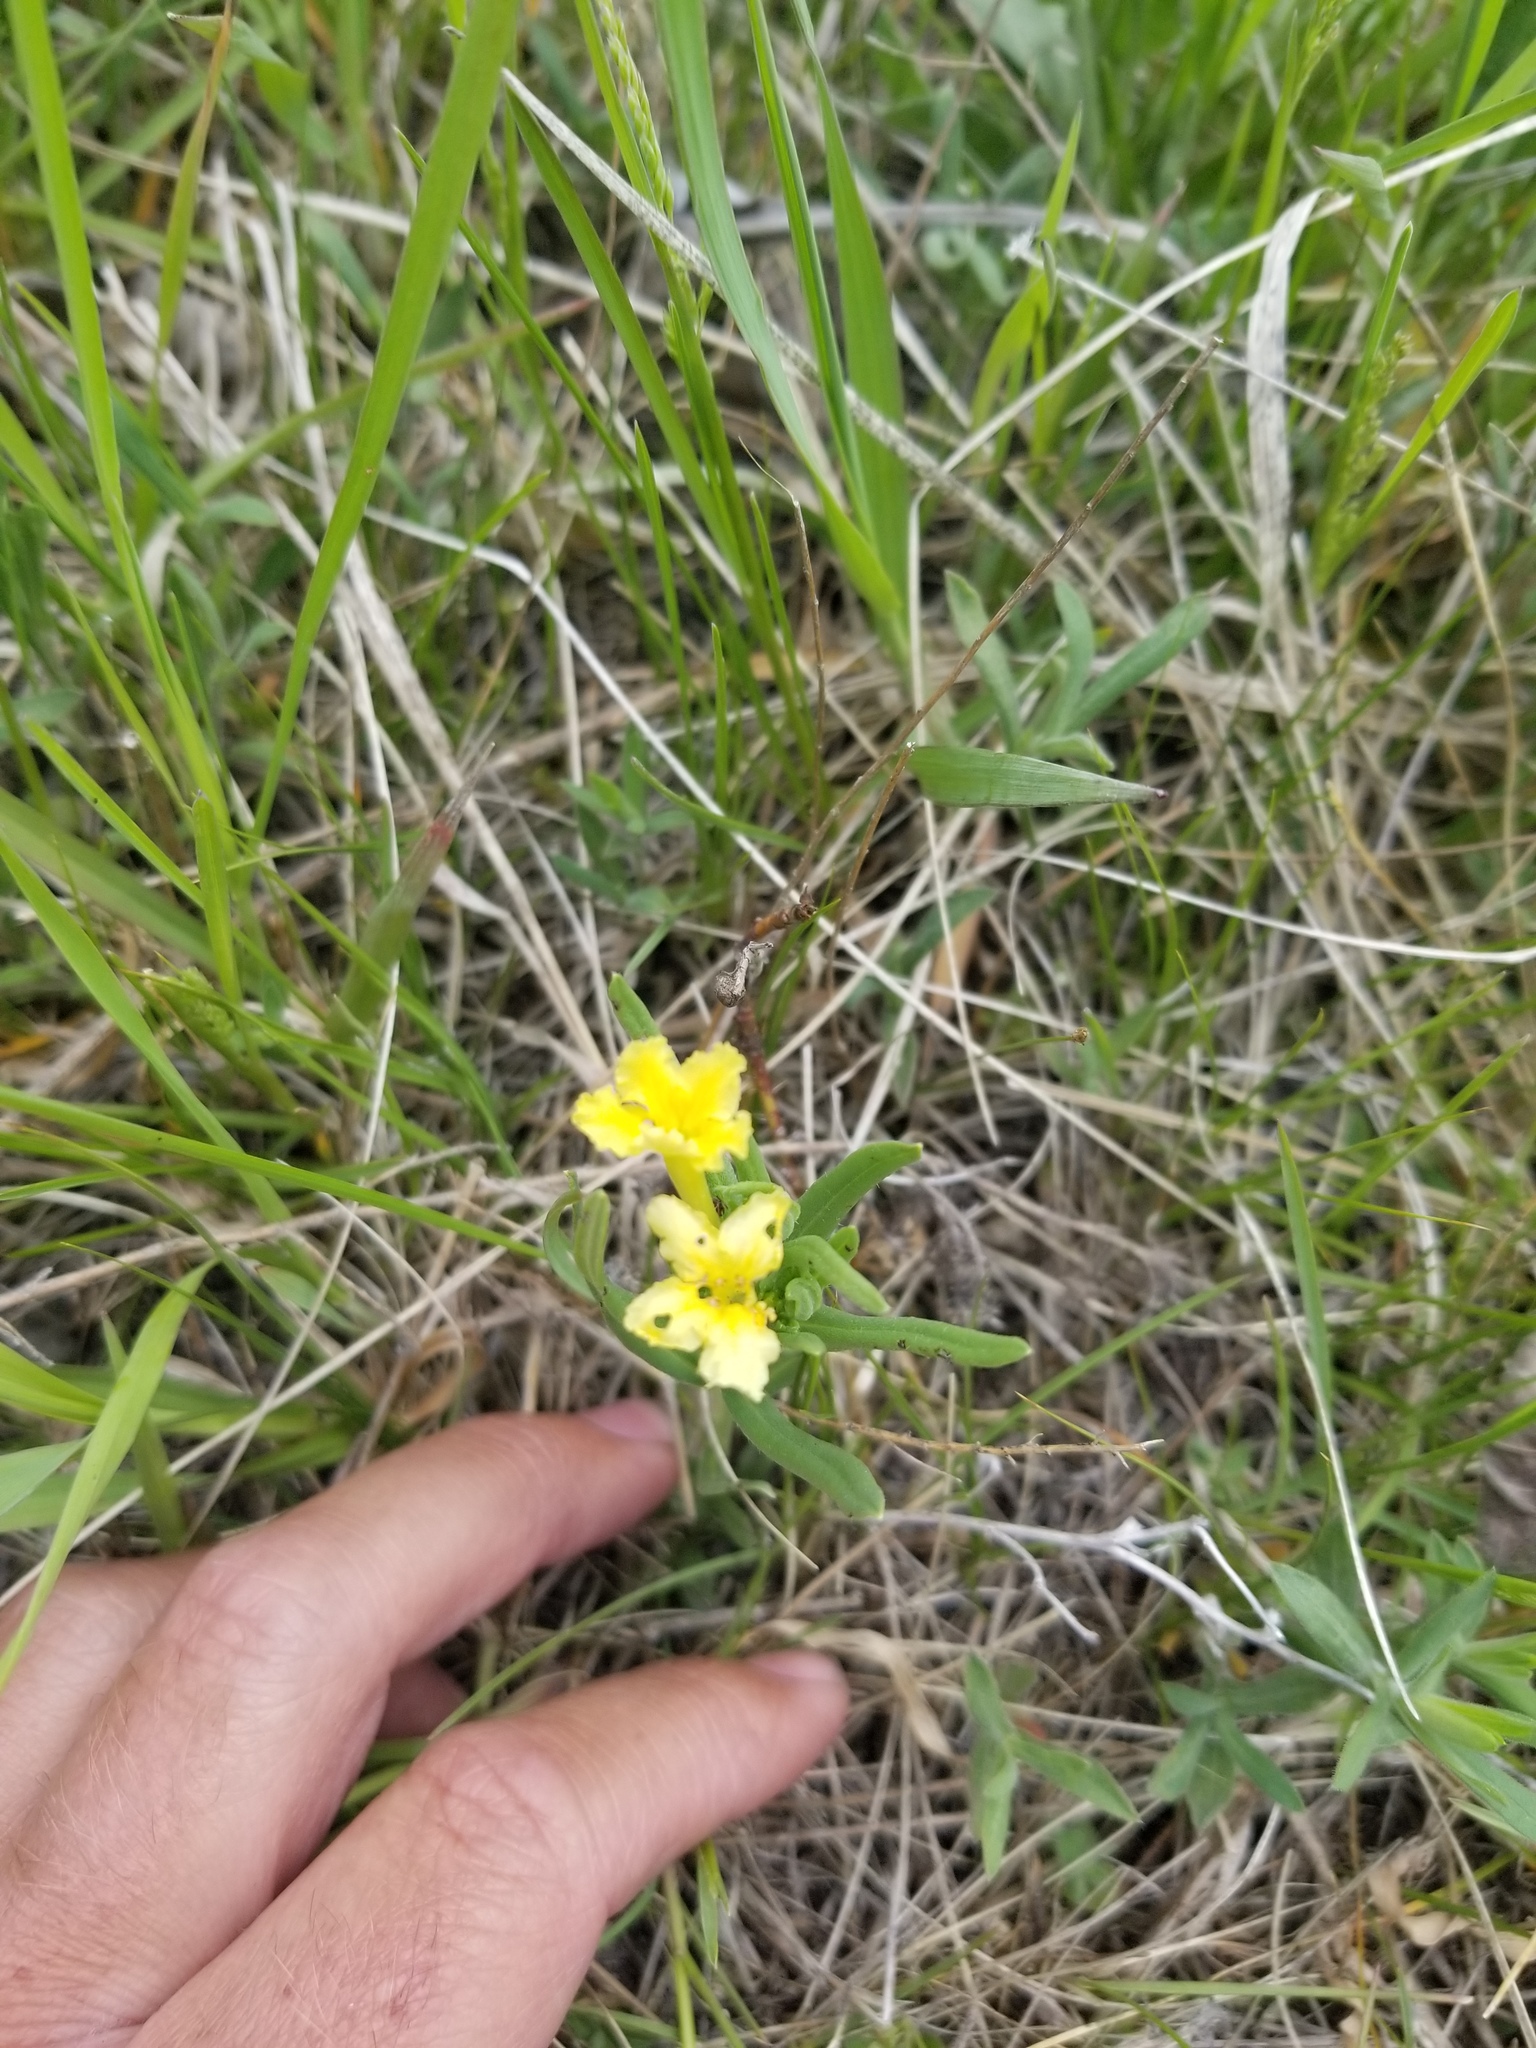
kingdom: Plantae
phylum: Tracheophyta
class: Magnoliopsida
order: Boraginales
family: Boraginaceae
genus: Lithospermum
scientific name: Lithospermum incisum
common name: Fringed gromwell
